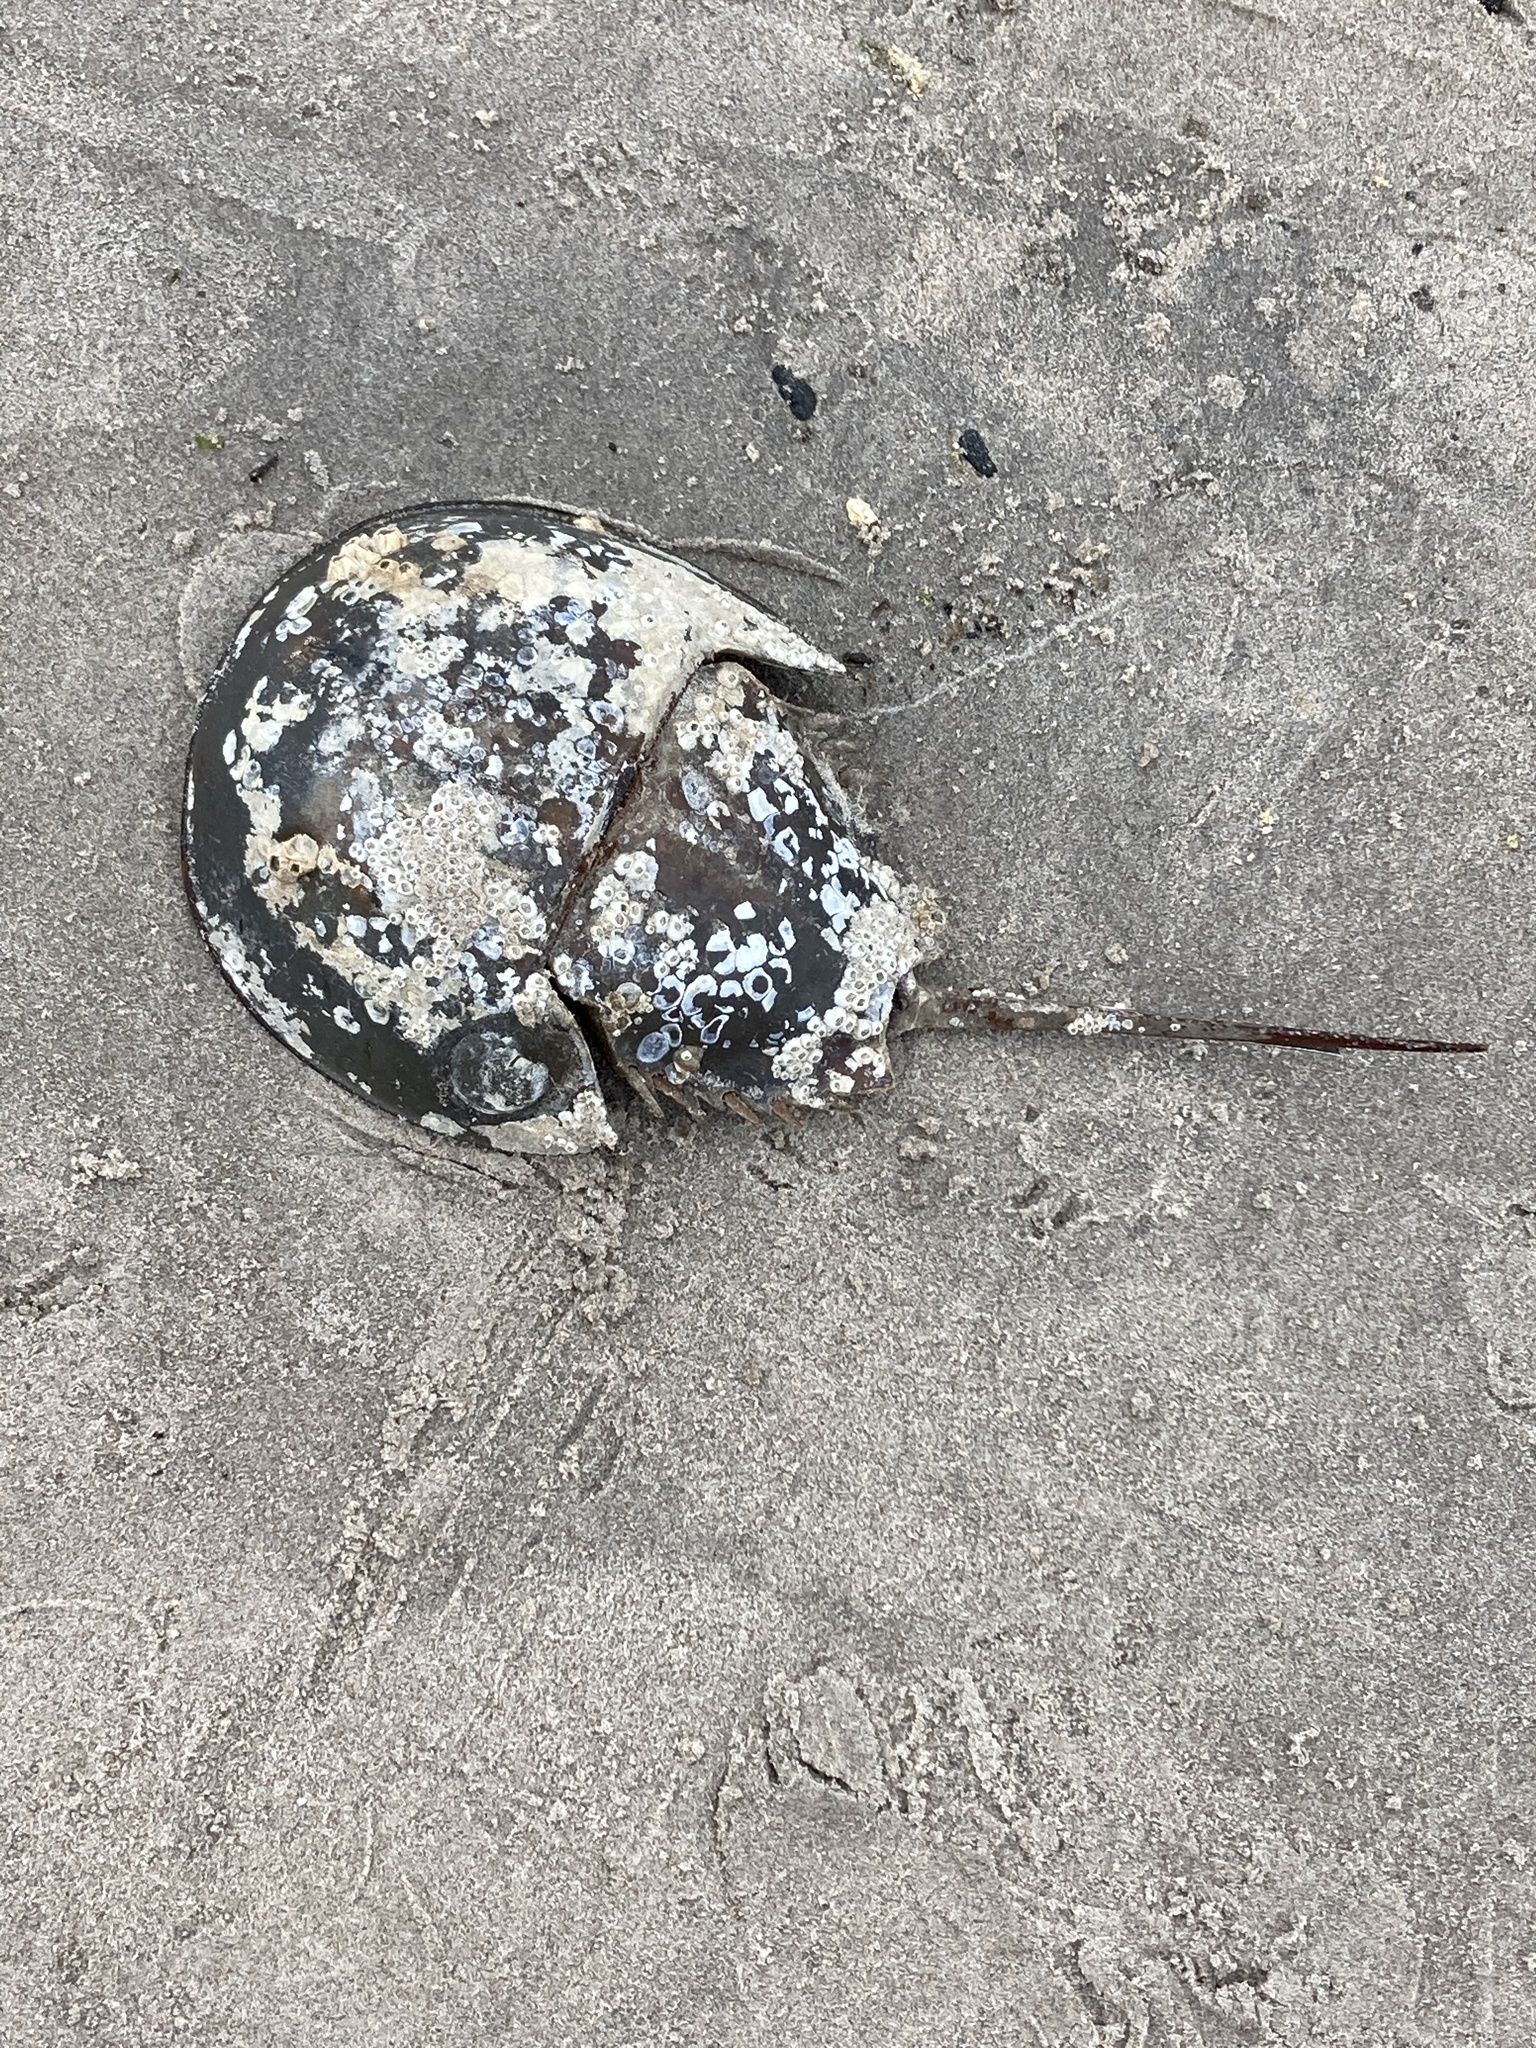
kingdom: Animalia
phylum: Arthropoda
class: Merostomata
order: Xiphosurida
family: Limulidae
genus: Limulus
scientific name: Limulus polyphemus
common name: Horseshoe crab
